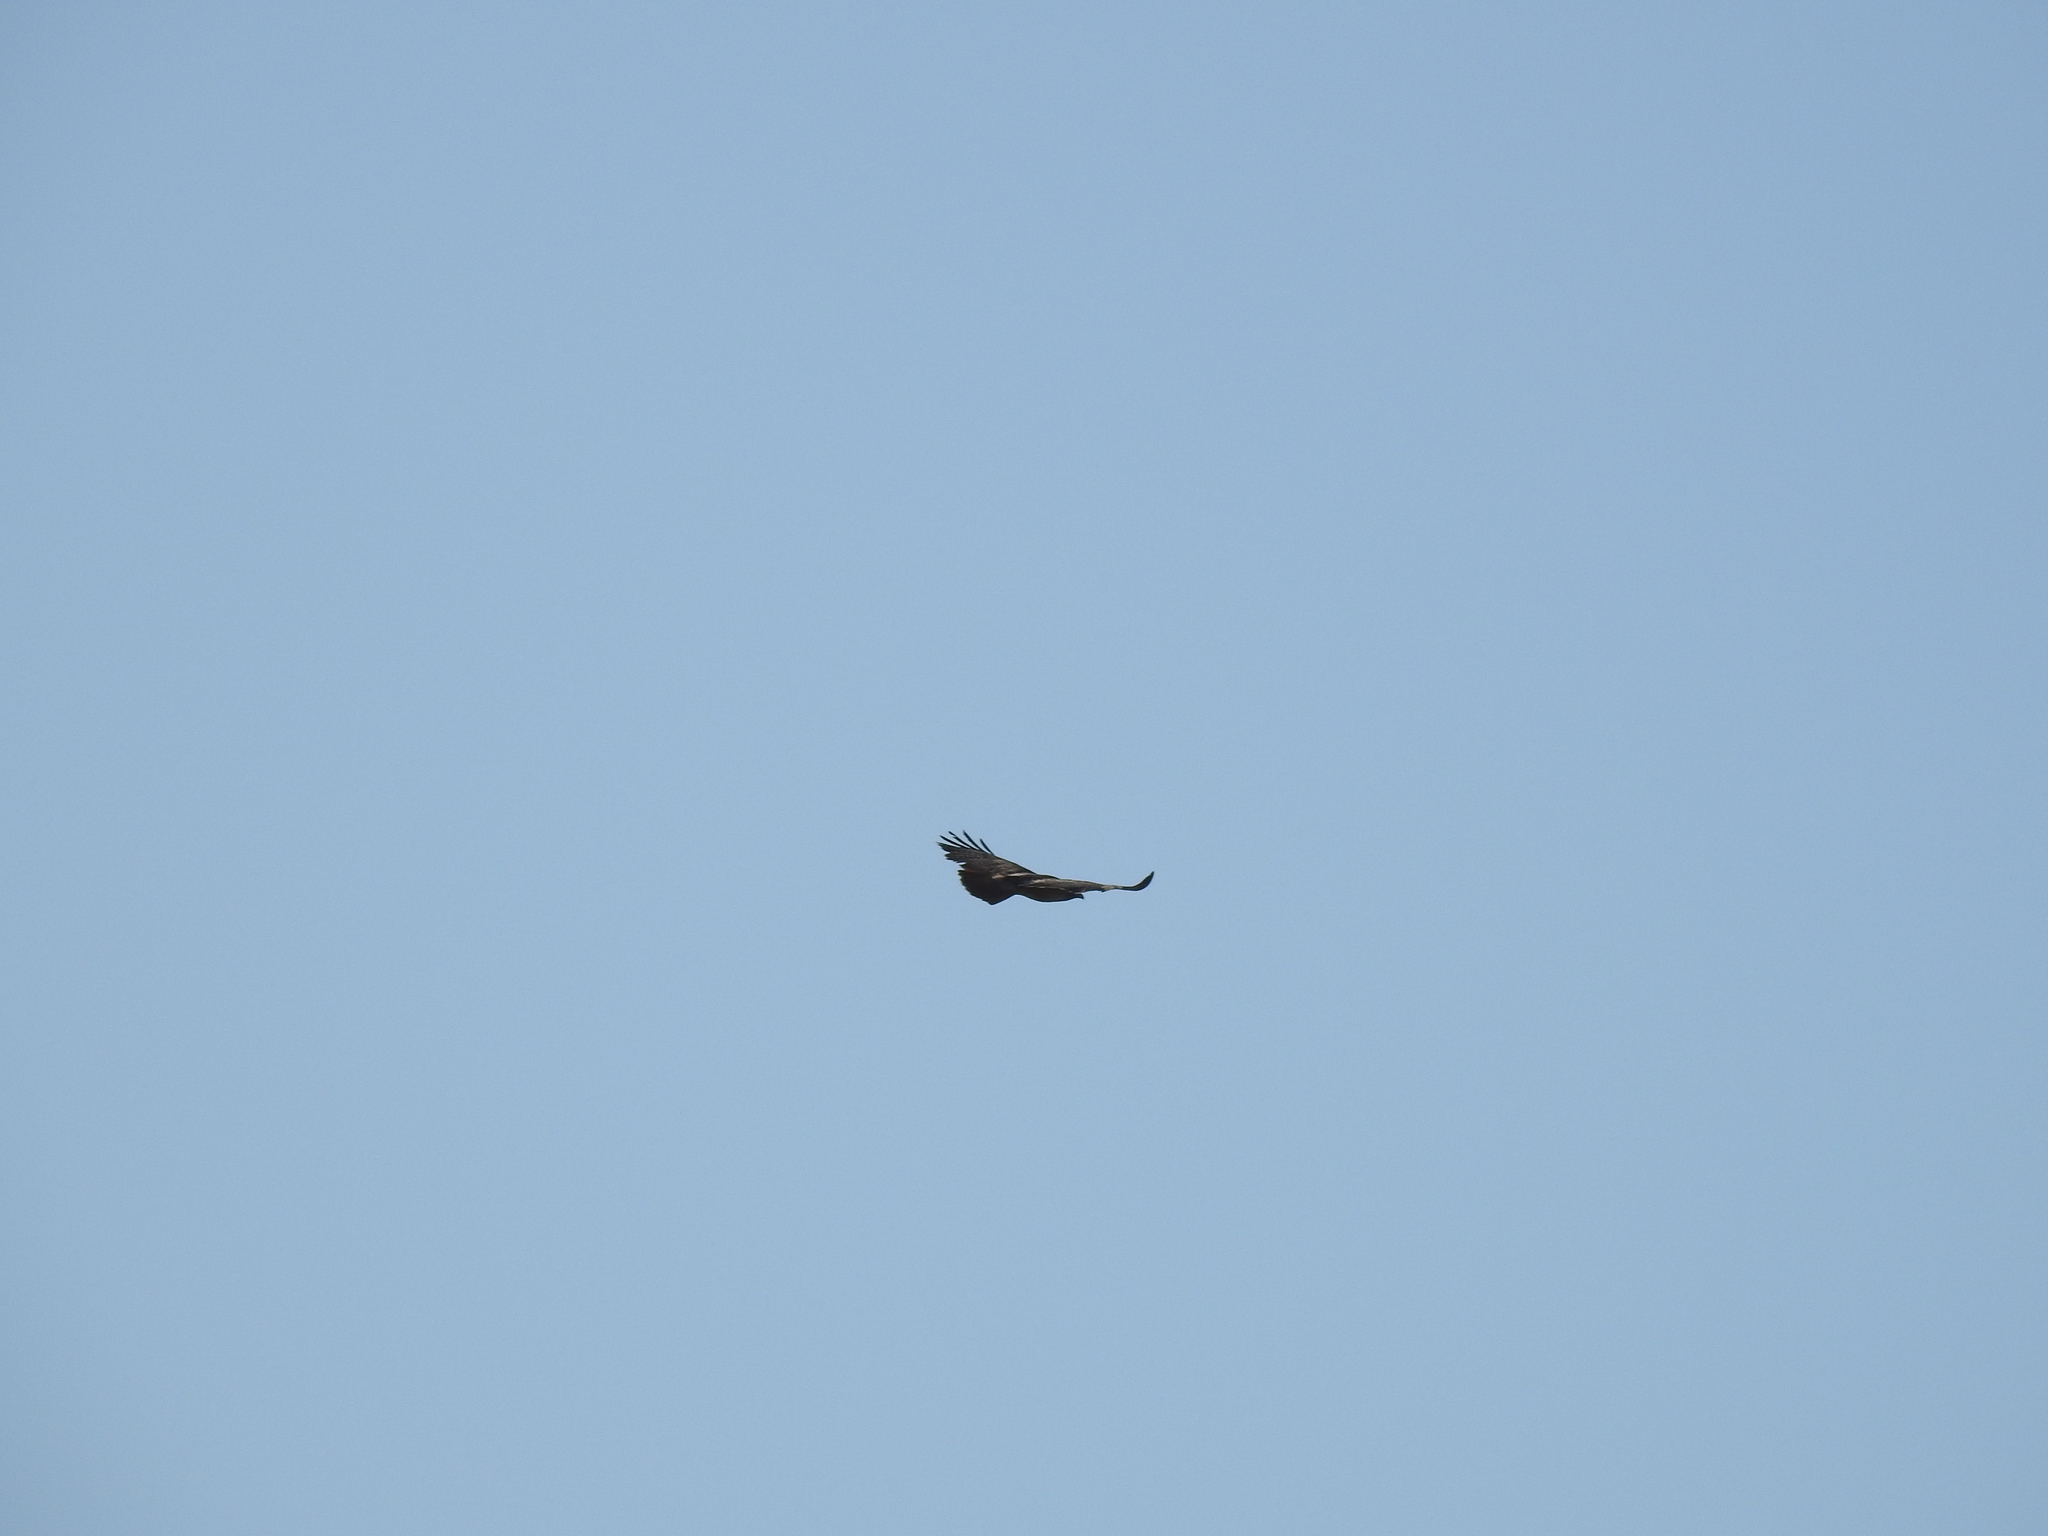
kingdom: Animalia
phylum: Chordata
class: Aves
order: Accipitriformes
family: Accipitridae
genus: Buteo
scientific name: Buteo jamaicensis
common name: Red-tailed hawk
